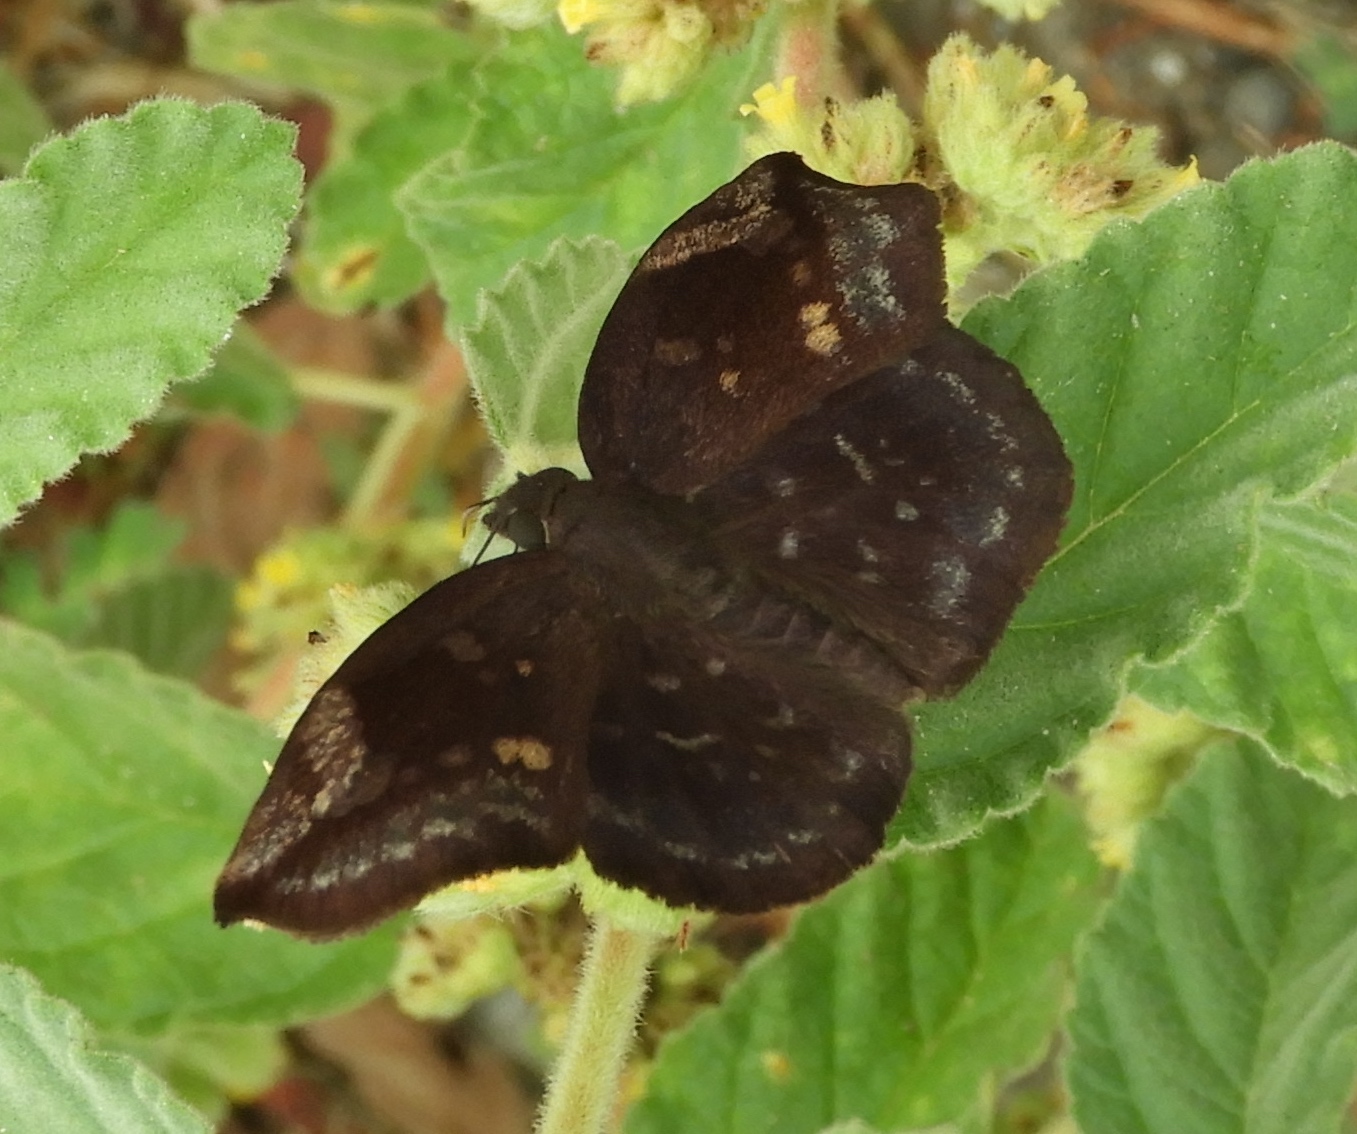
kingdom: Animalia
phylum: Arthropoda
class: Insecta
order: Lepidoptera
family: Hesperiidae
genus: Achlyodes
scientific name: Achlyodes thraso
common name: Sickle-winged skipper
